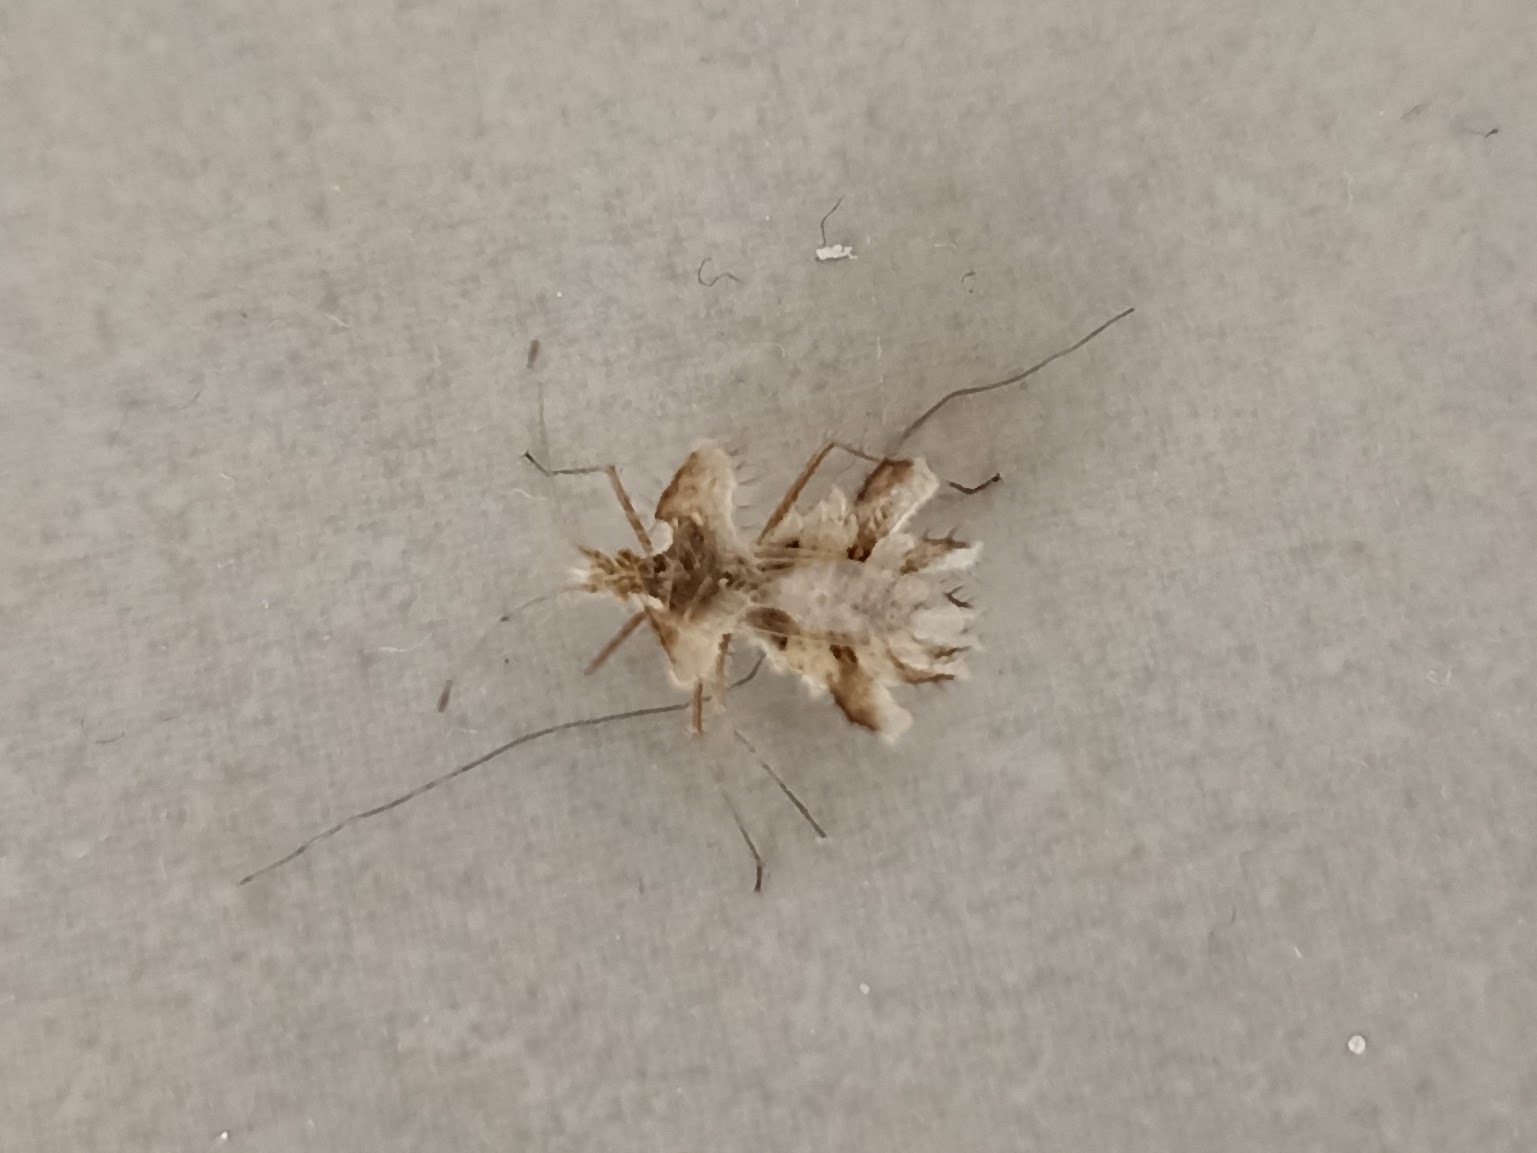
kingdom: Animalia
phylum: Arthropoda
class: Insecta
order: Hemiptera
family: Coreidae
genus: Phyllomorpha
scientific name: Phyllomorpha laciniata
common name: Golden egg bug
